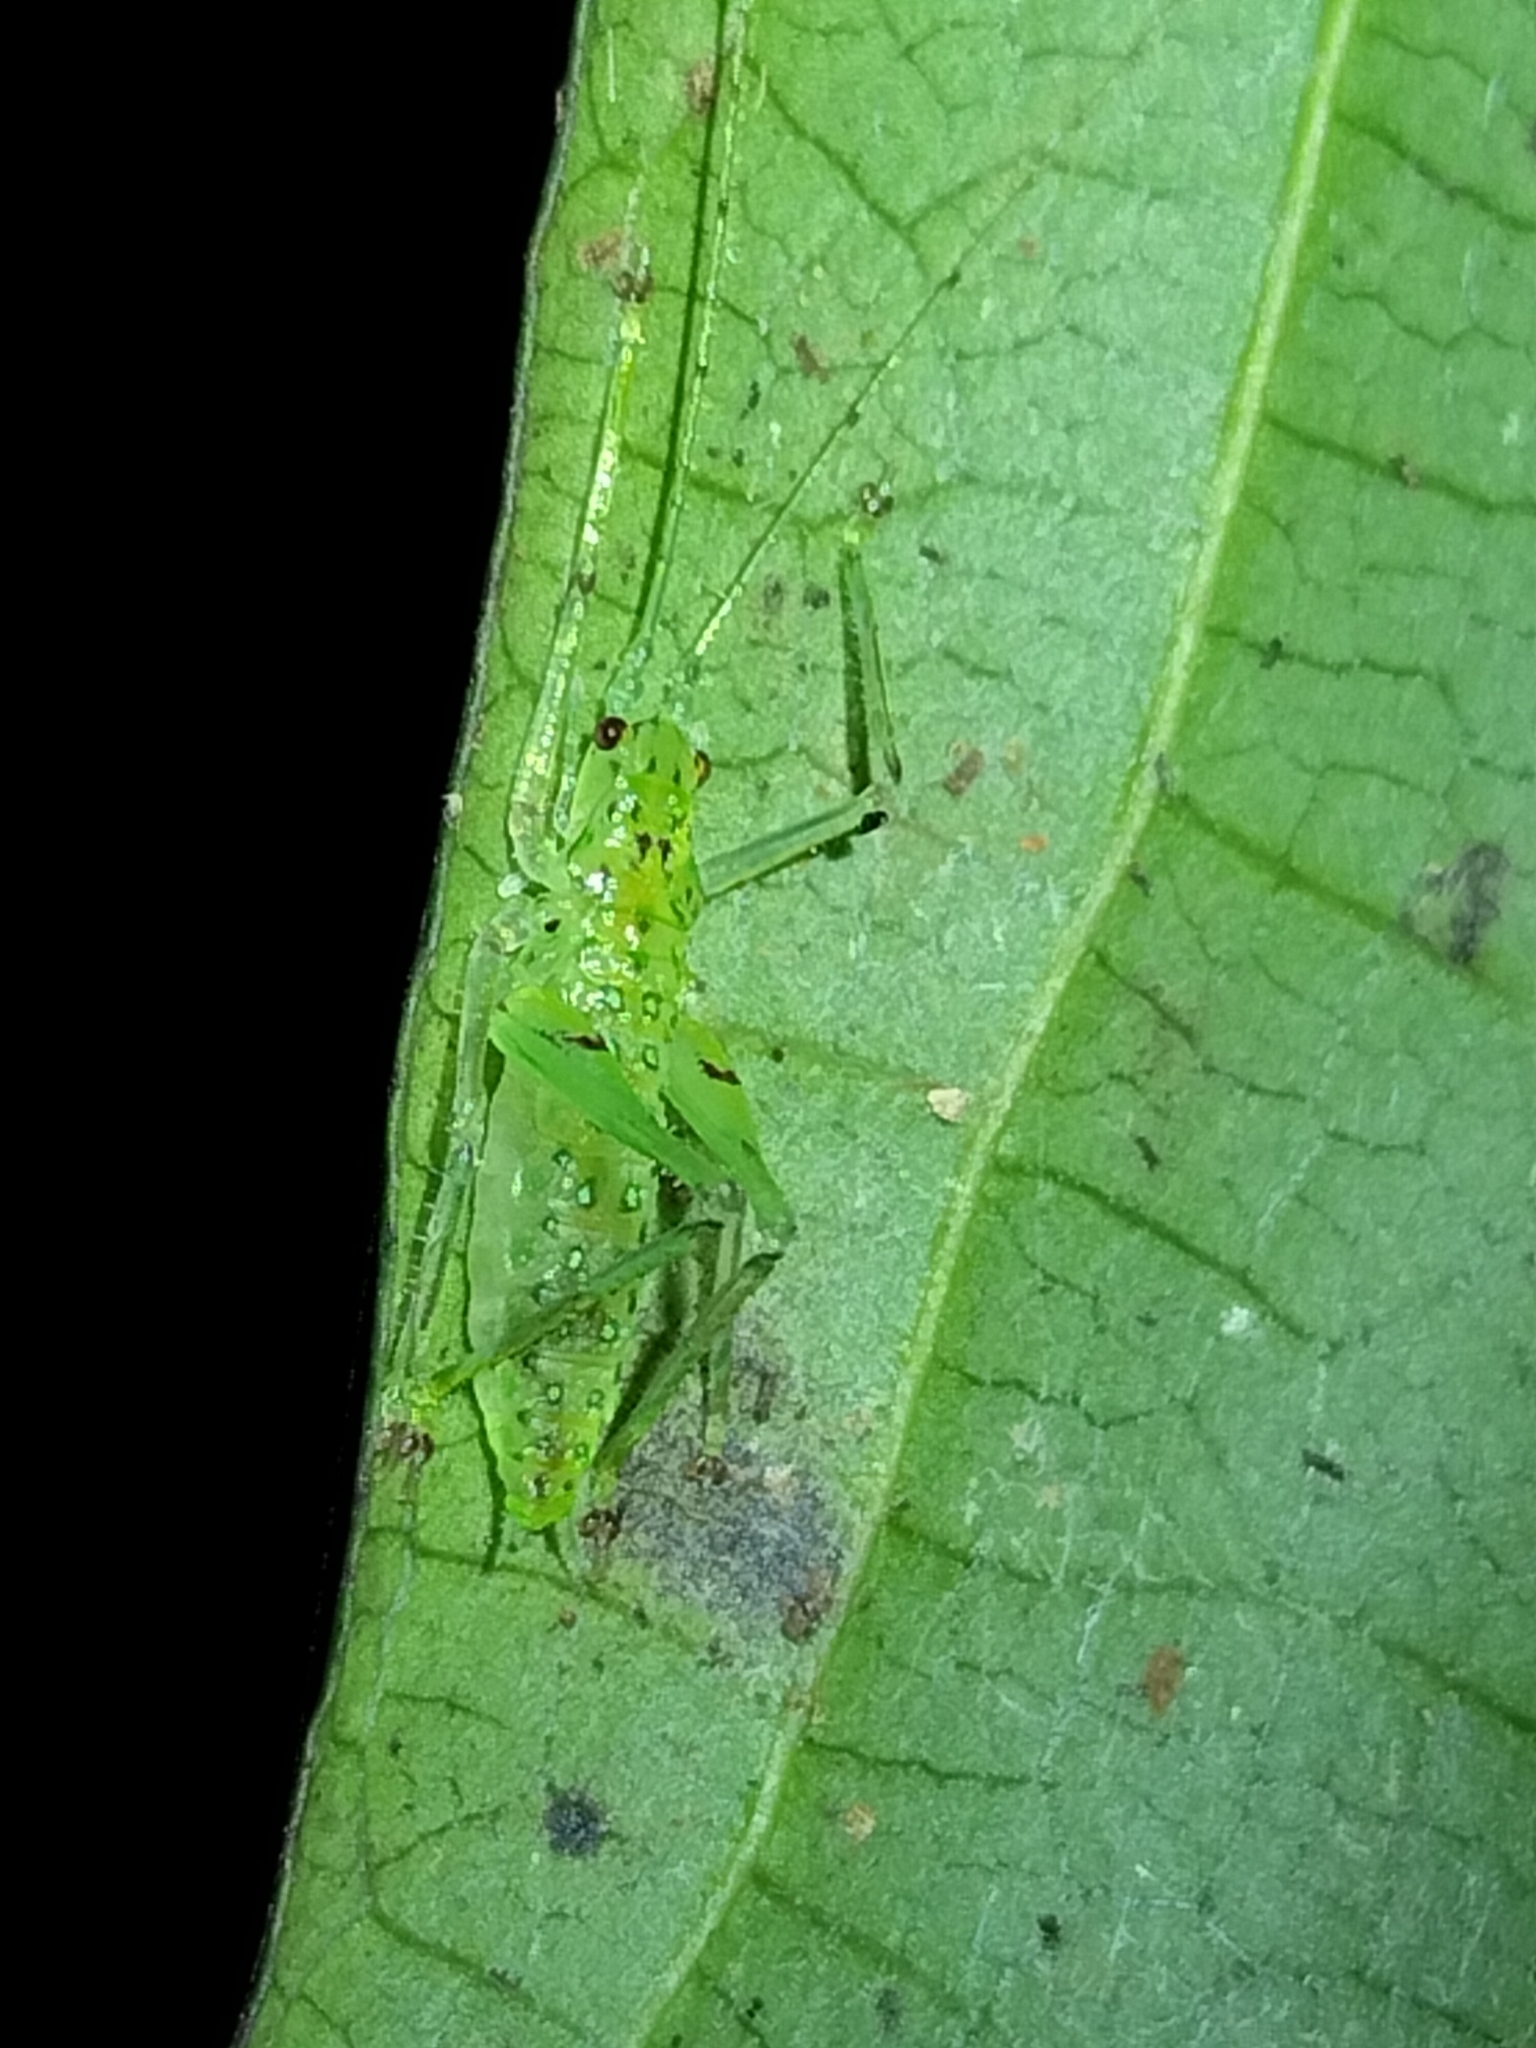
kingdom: Animalia
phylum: Arthropoda
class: Insecta
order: Orthoptera
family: Tettigoniidae
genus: Miniagraecia
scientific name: Miniagraecia milyali
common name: Tiny forest green katydid
